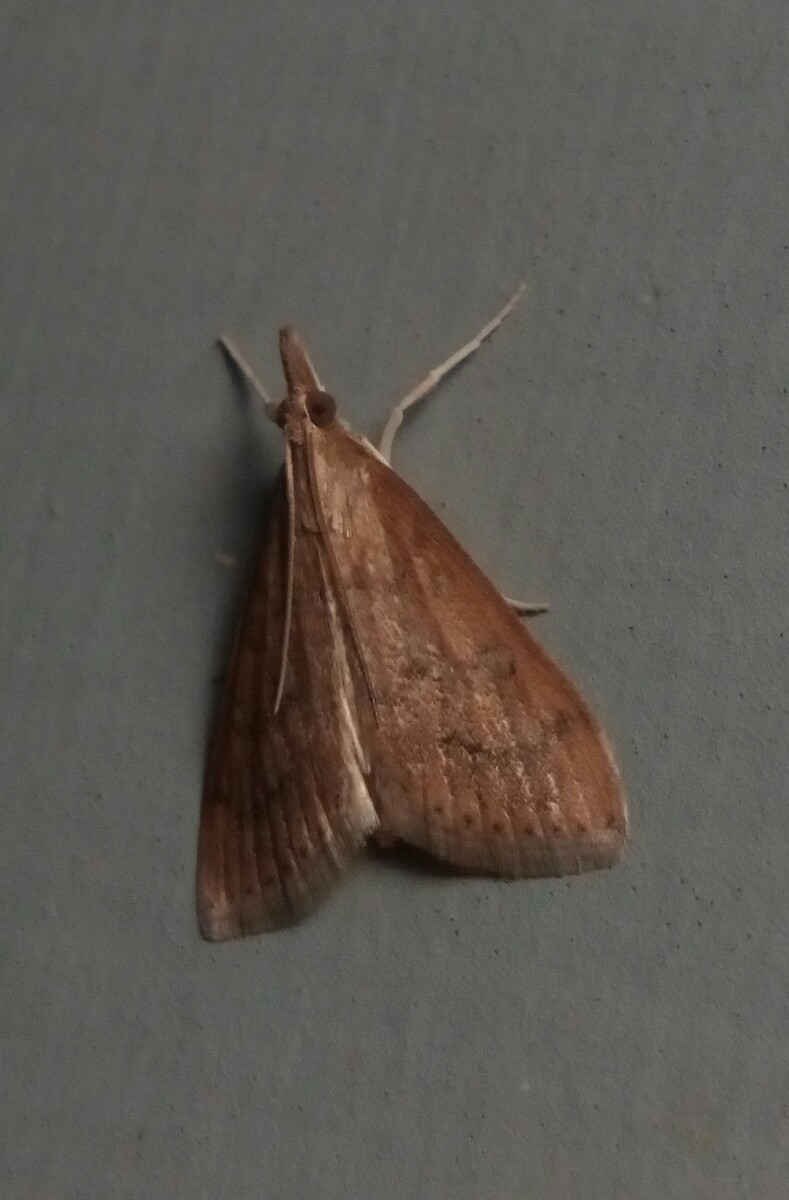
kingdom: Animalia
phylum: Arthropoda
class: Insecta
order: Lepidoptera
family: Crambidae
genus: Udea
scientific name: Udea rubigalis
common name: Celery leaftier moth
